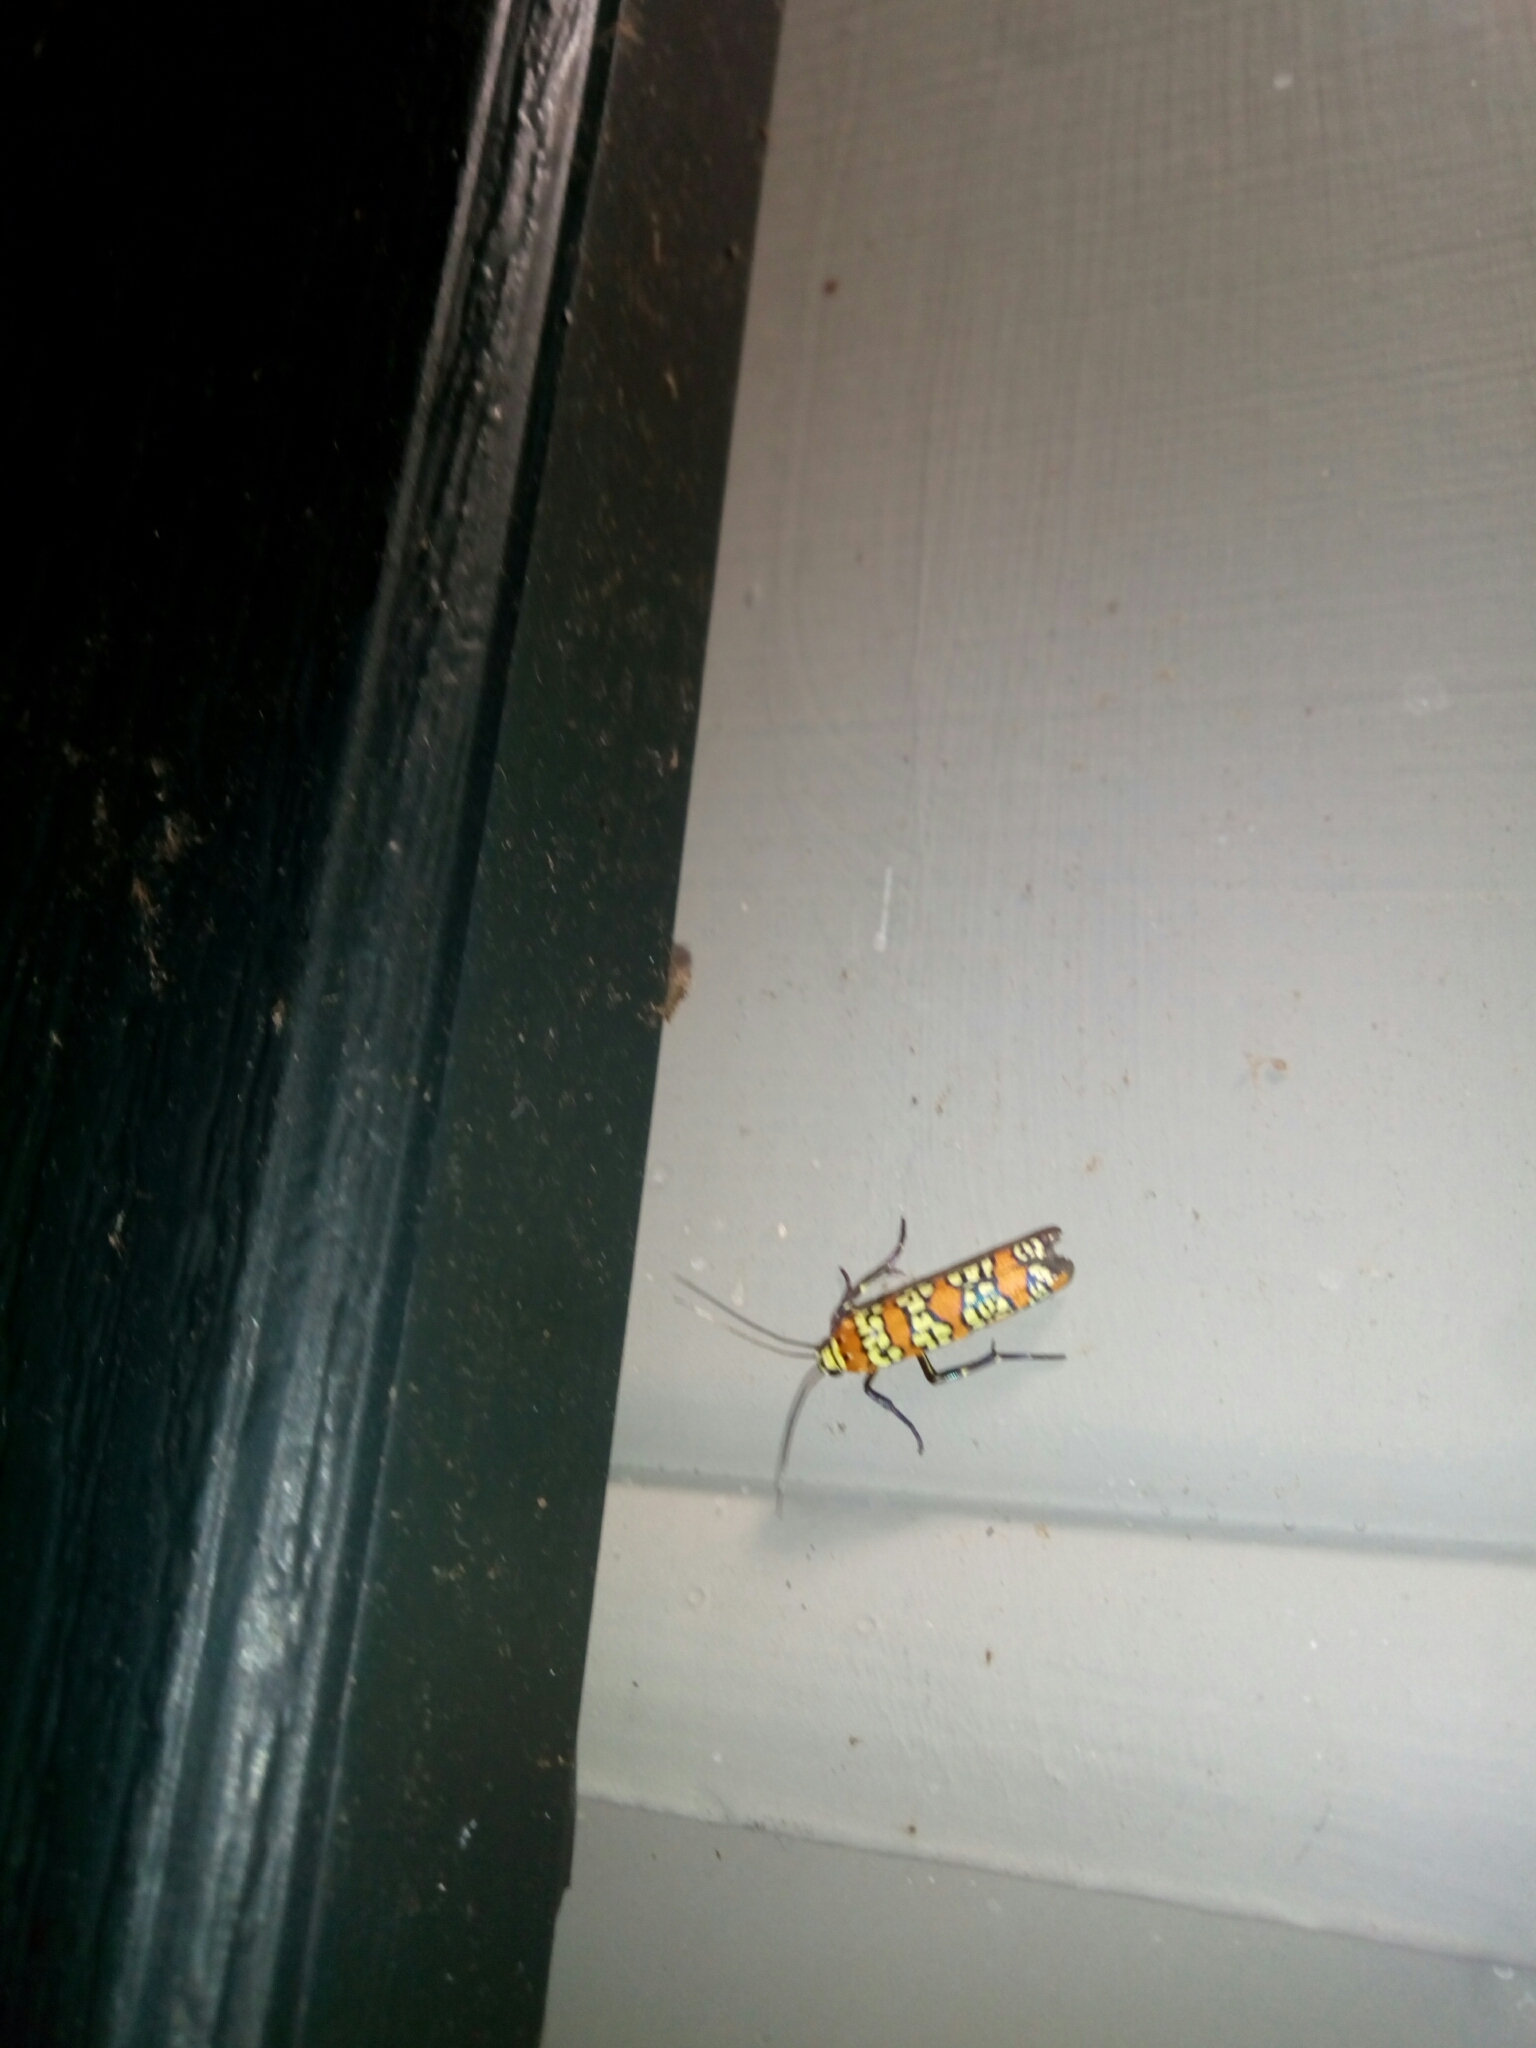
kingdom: Animalia
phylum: Arthropoda
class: Insecta
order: Lepidoptera
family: Attevidae
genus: Atteva
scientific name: Atteva punctella
